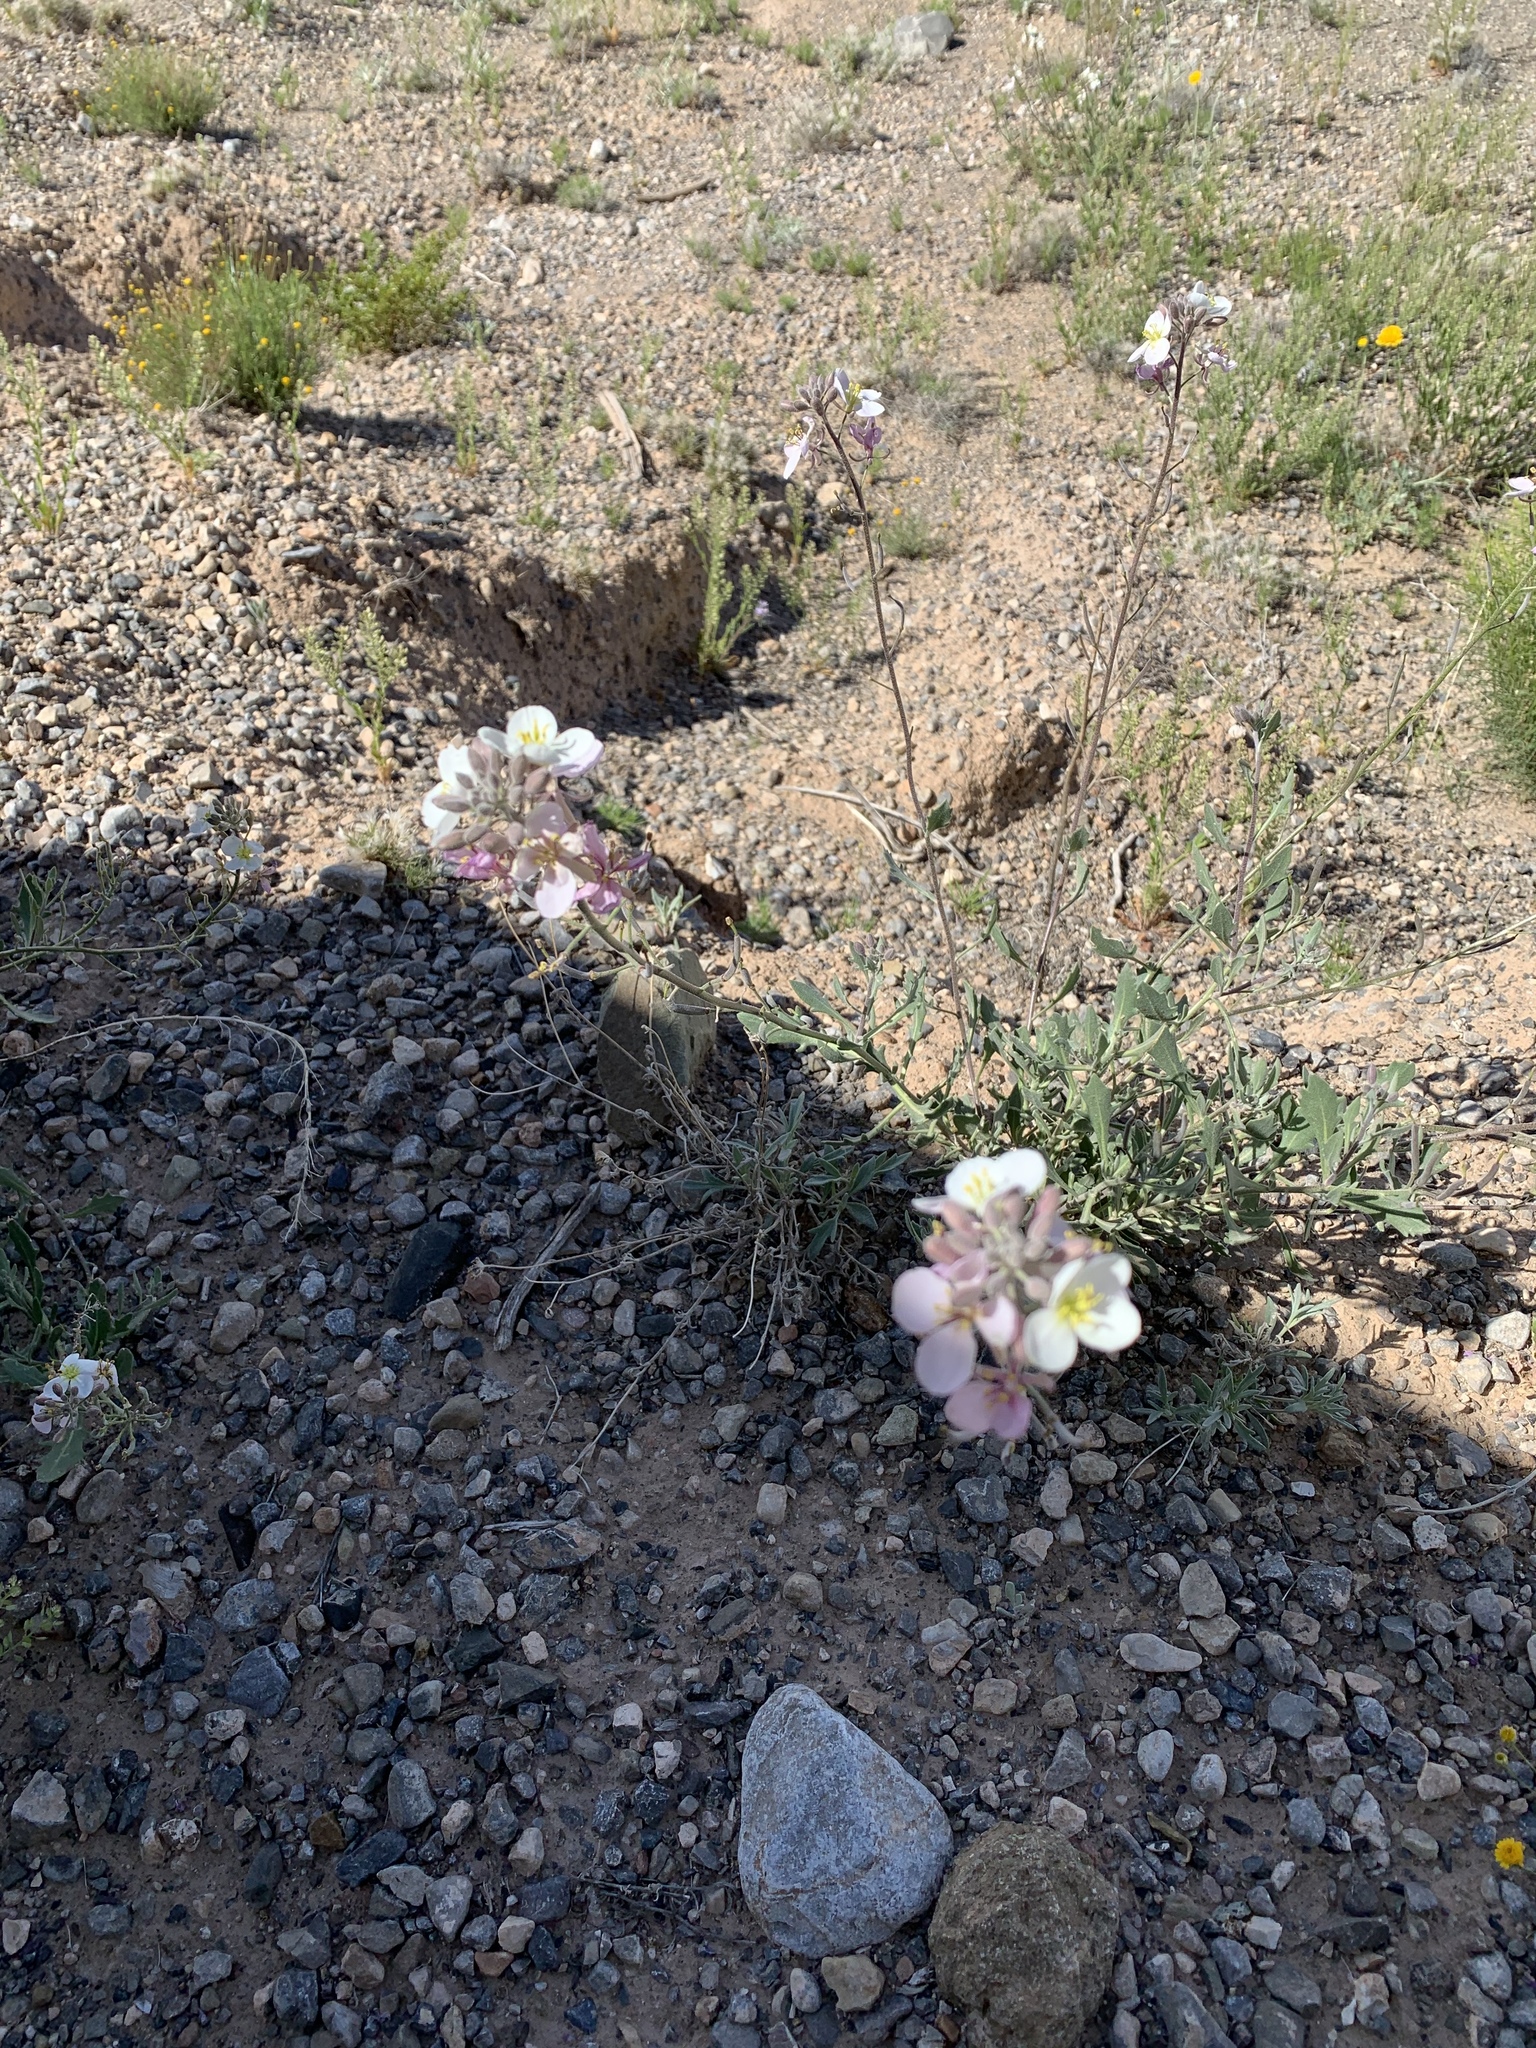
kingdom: Plantae
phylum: Tracheophyta
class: Magnoliopsida
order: Brassicales
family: Brassicaceae
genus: Nerisyrenia
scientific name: Nerisyrenia camporum
